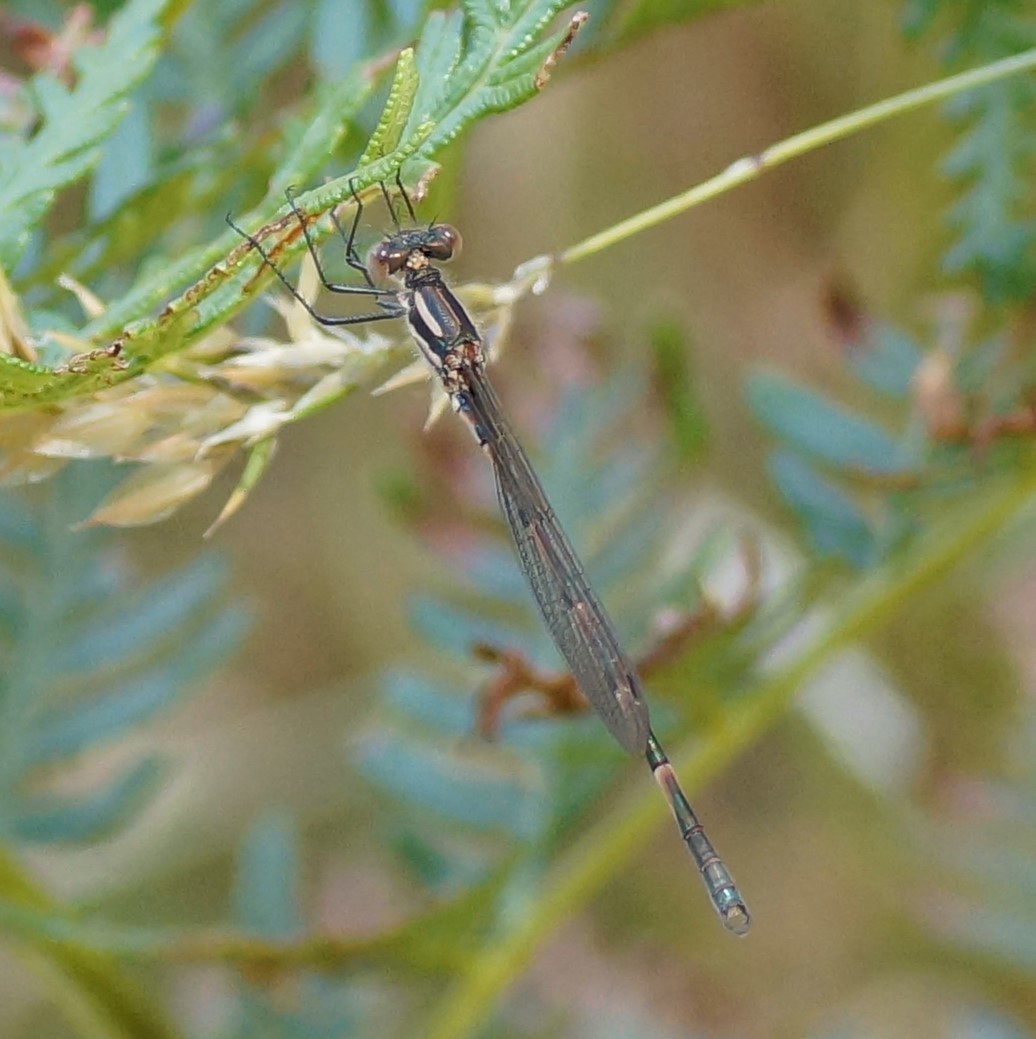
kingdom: Animalia
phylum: Arthropoda
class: Insecta
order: Odonata
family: Lestidae
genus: Austrolestes
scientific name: Austrolestes annulosus
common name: Blue ringtail
